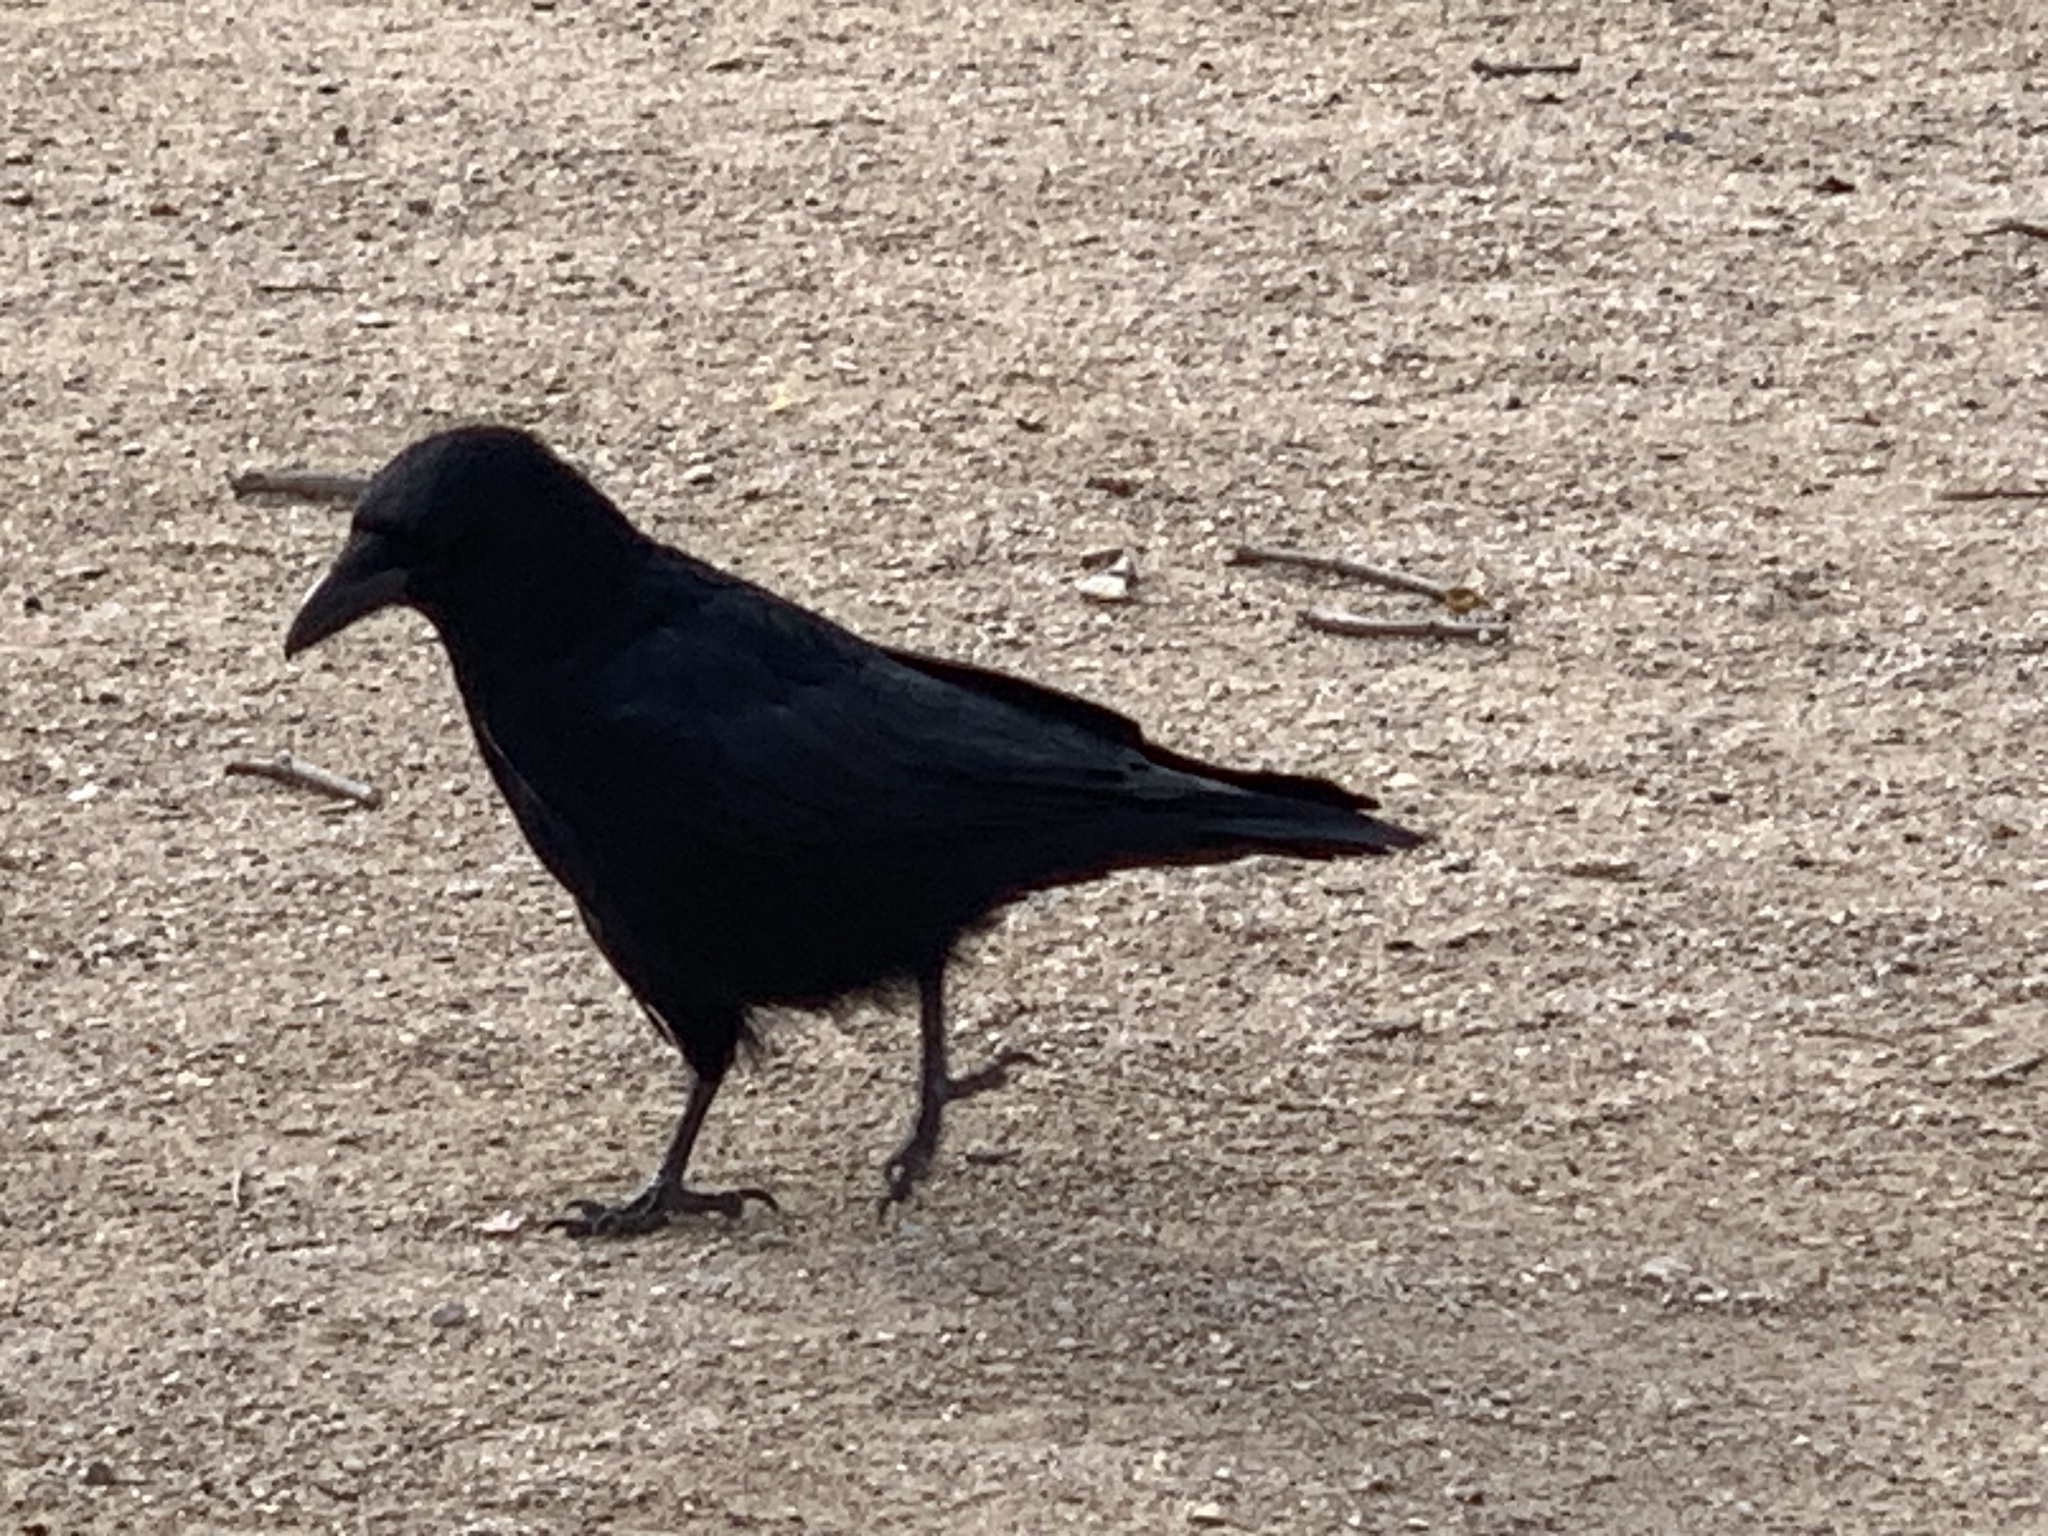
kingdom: Animalia
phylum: Chordata
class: Aves
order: Passeriformes
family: Corvidae
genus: Corvus
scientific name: Corvus corone
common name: Carrion crow
